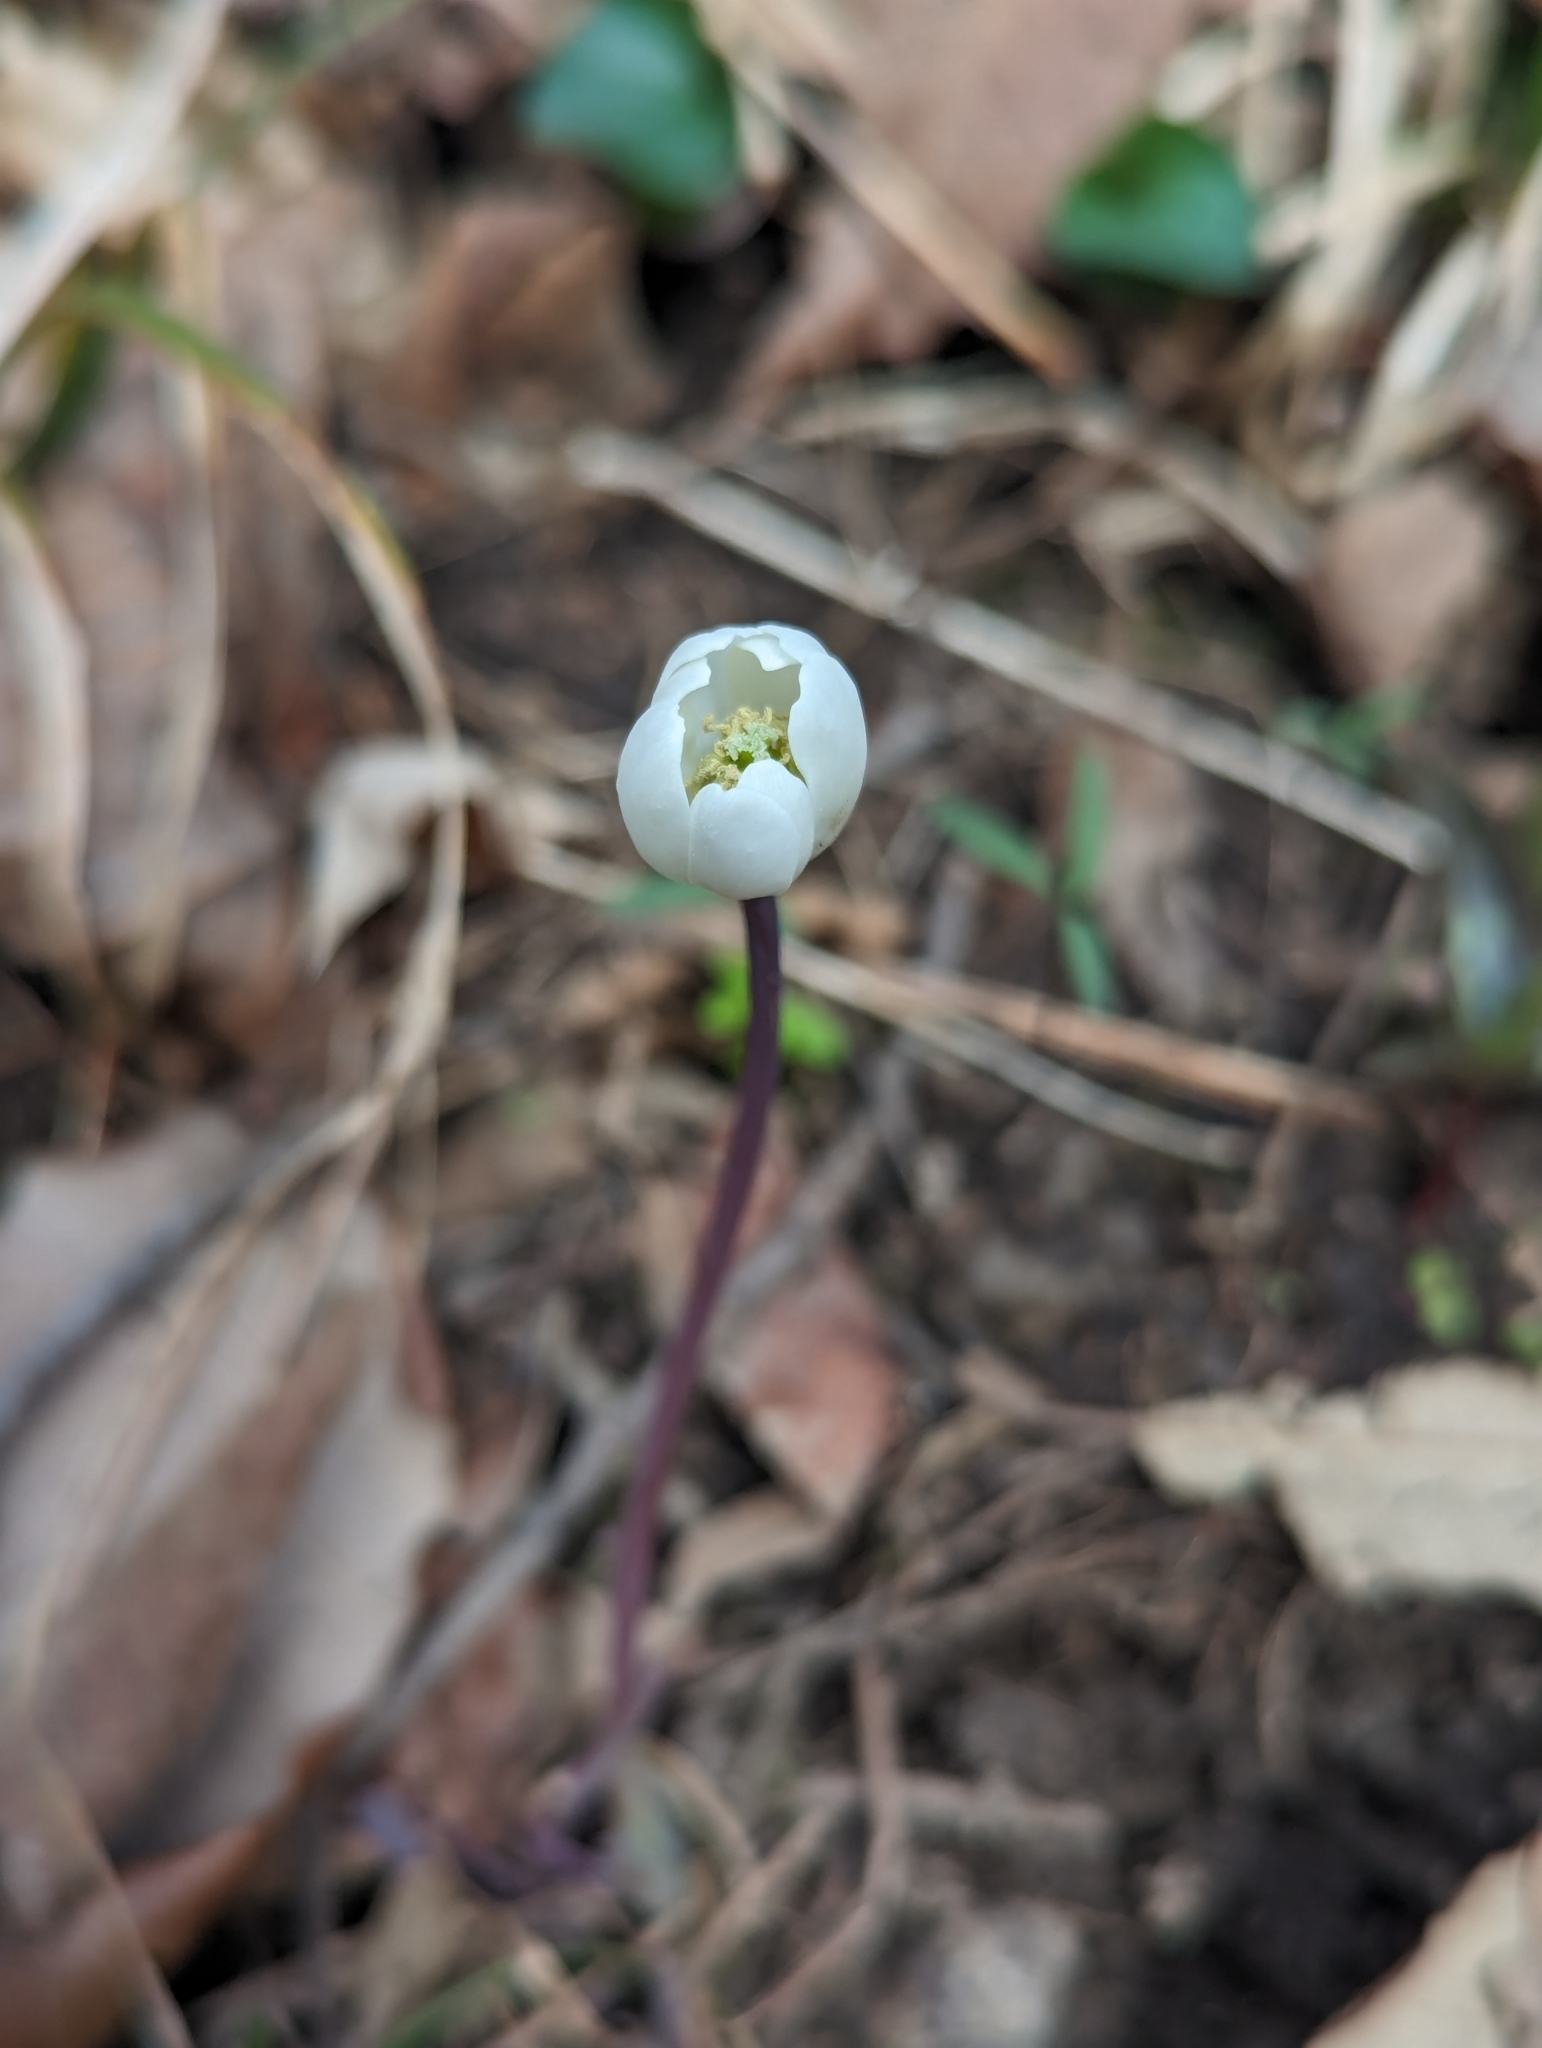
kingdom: Plantae
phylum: Tracheophyta
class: Magnoliopsida
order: Ranunculales
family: Berberidaceae
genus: Jeffersonia
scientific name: Jeffersonia diphylla
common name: Rheumatism-root
